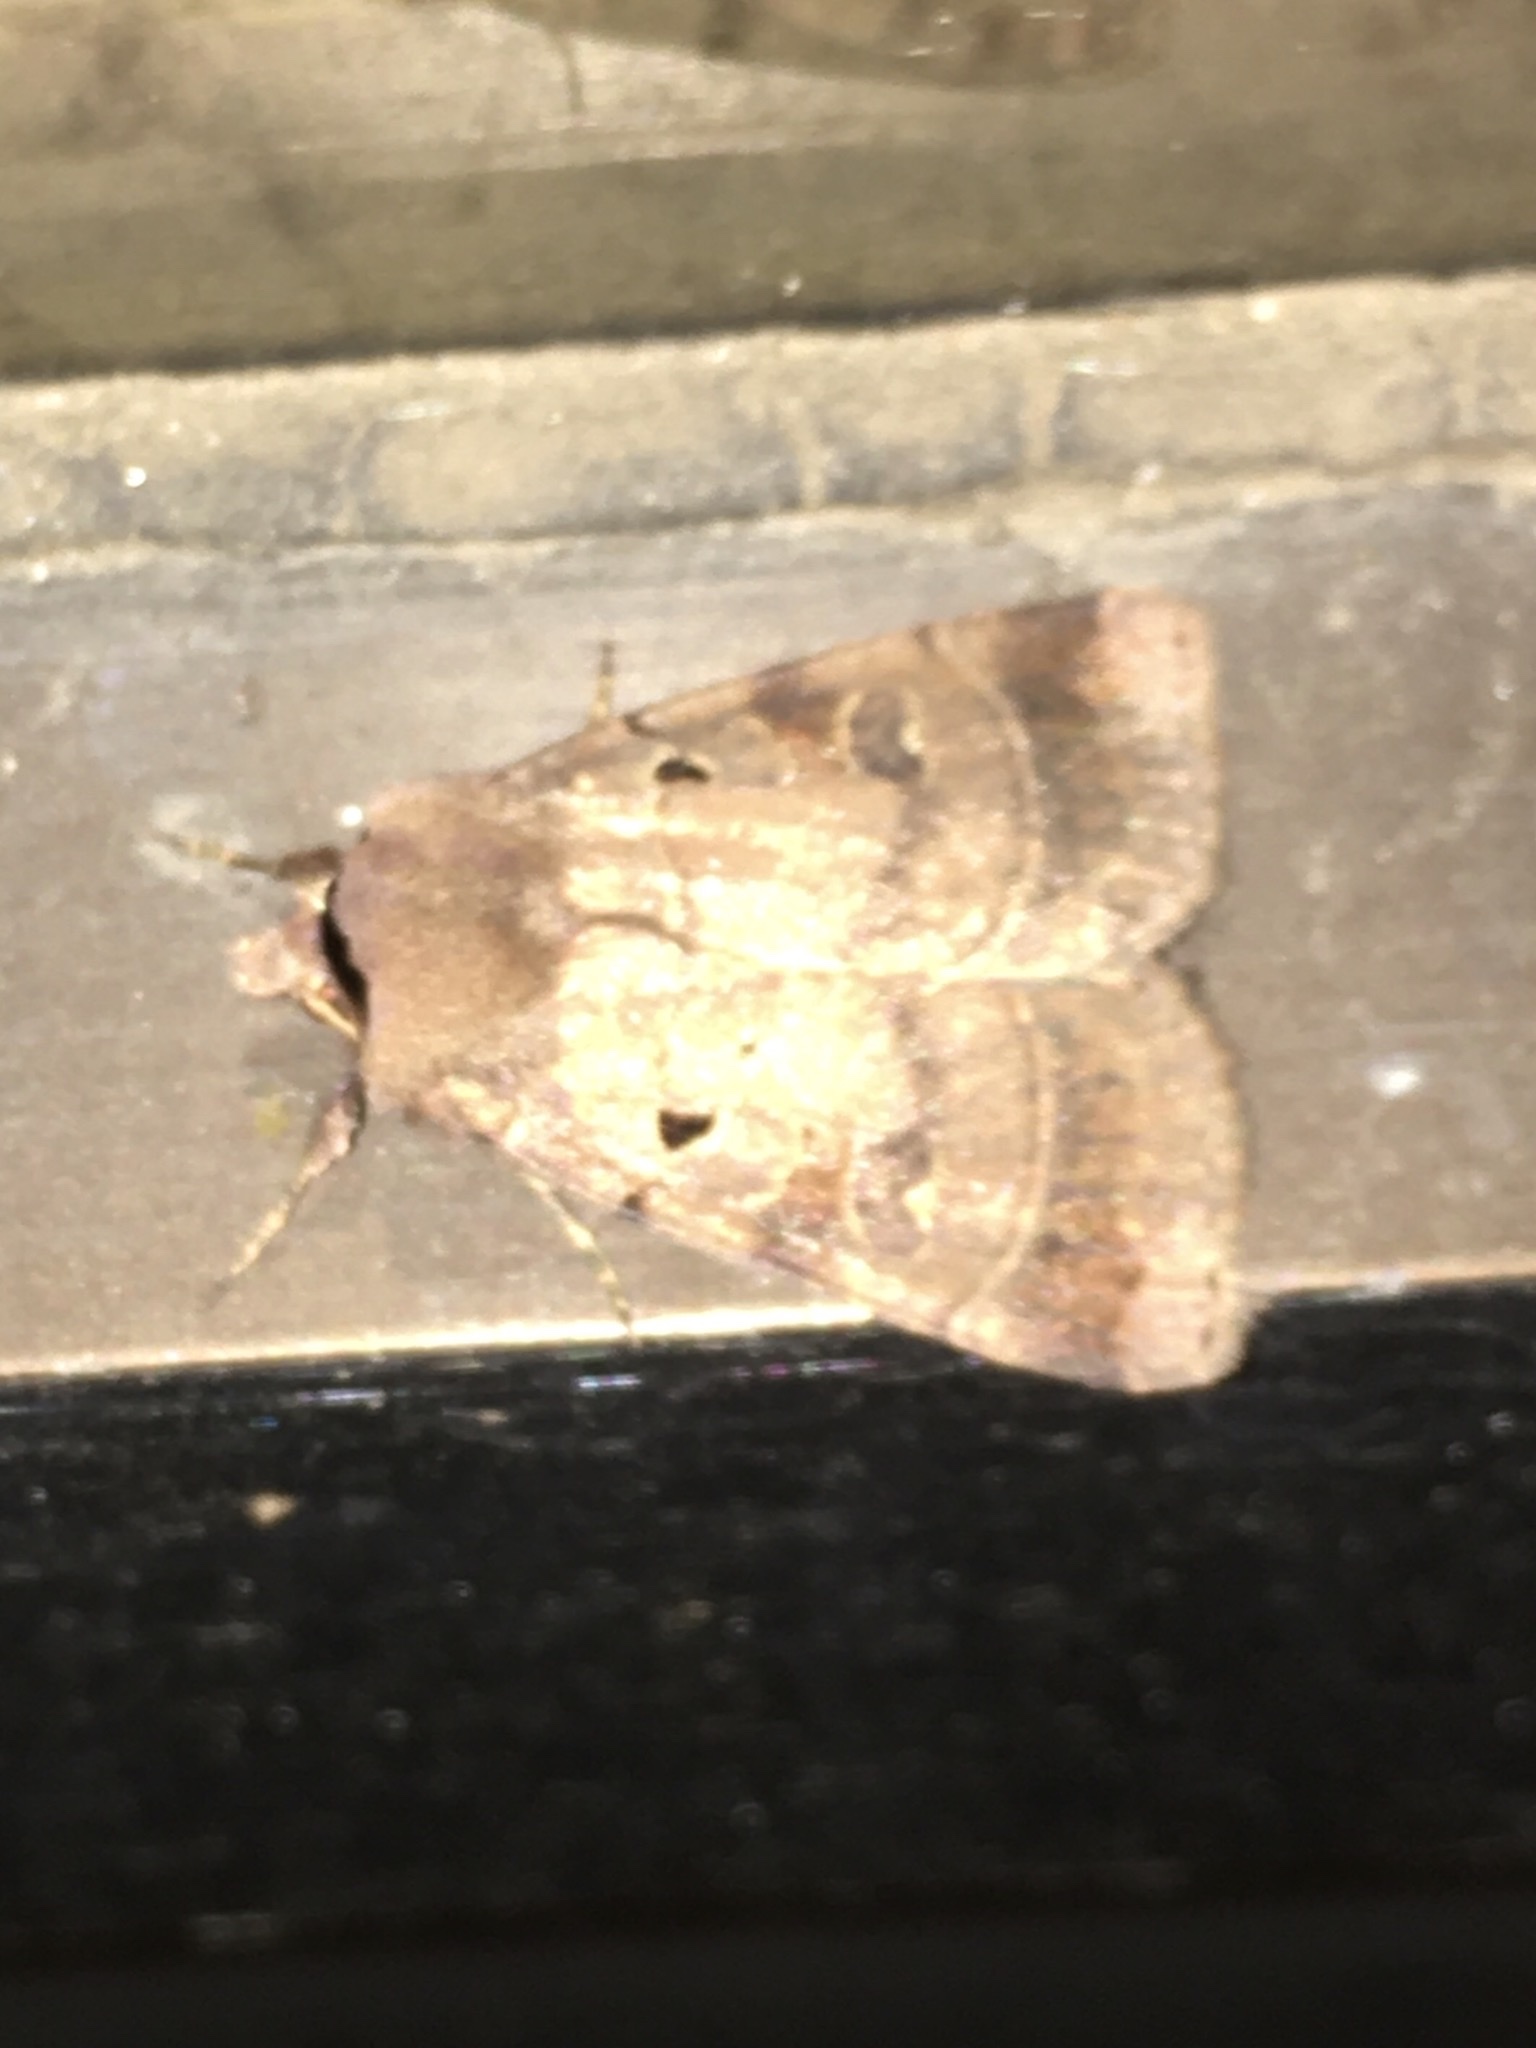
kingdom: Animalia
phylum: Arthropoda
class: Insecta
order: Lepidoptera
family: Noctuidae
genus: Agnorisma
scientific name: Agnorisma badinodis
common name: Pale-banded dart
